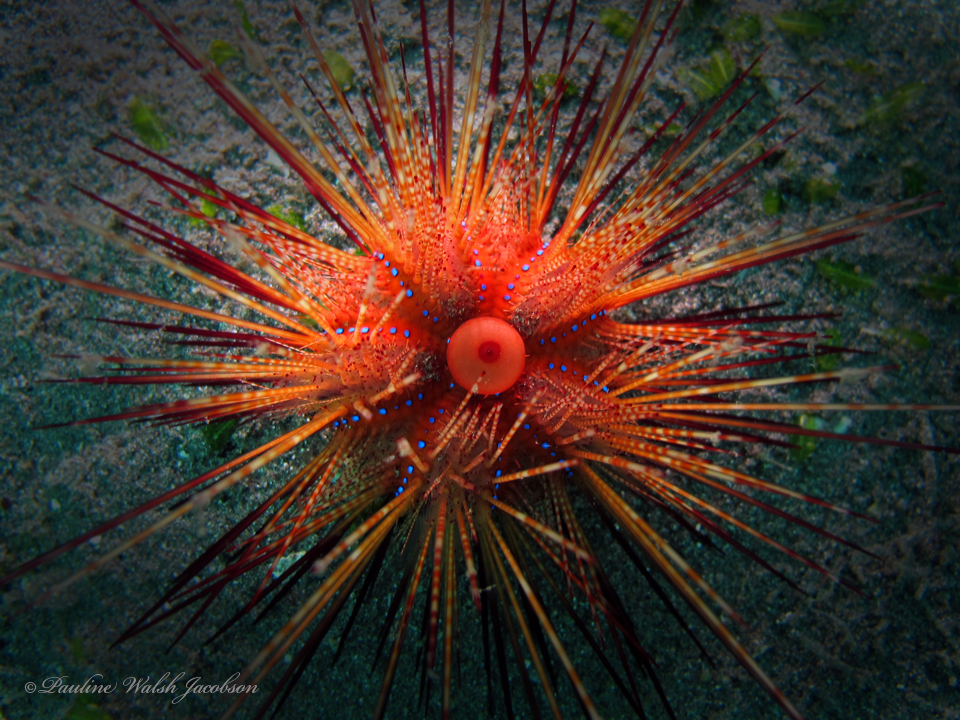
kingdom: Animalia
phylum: Echinodermata
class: Echinoidea
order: Diadematoida
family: Diadematidae
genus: Astropyga
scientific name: Astropyga radiata
